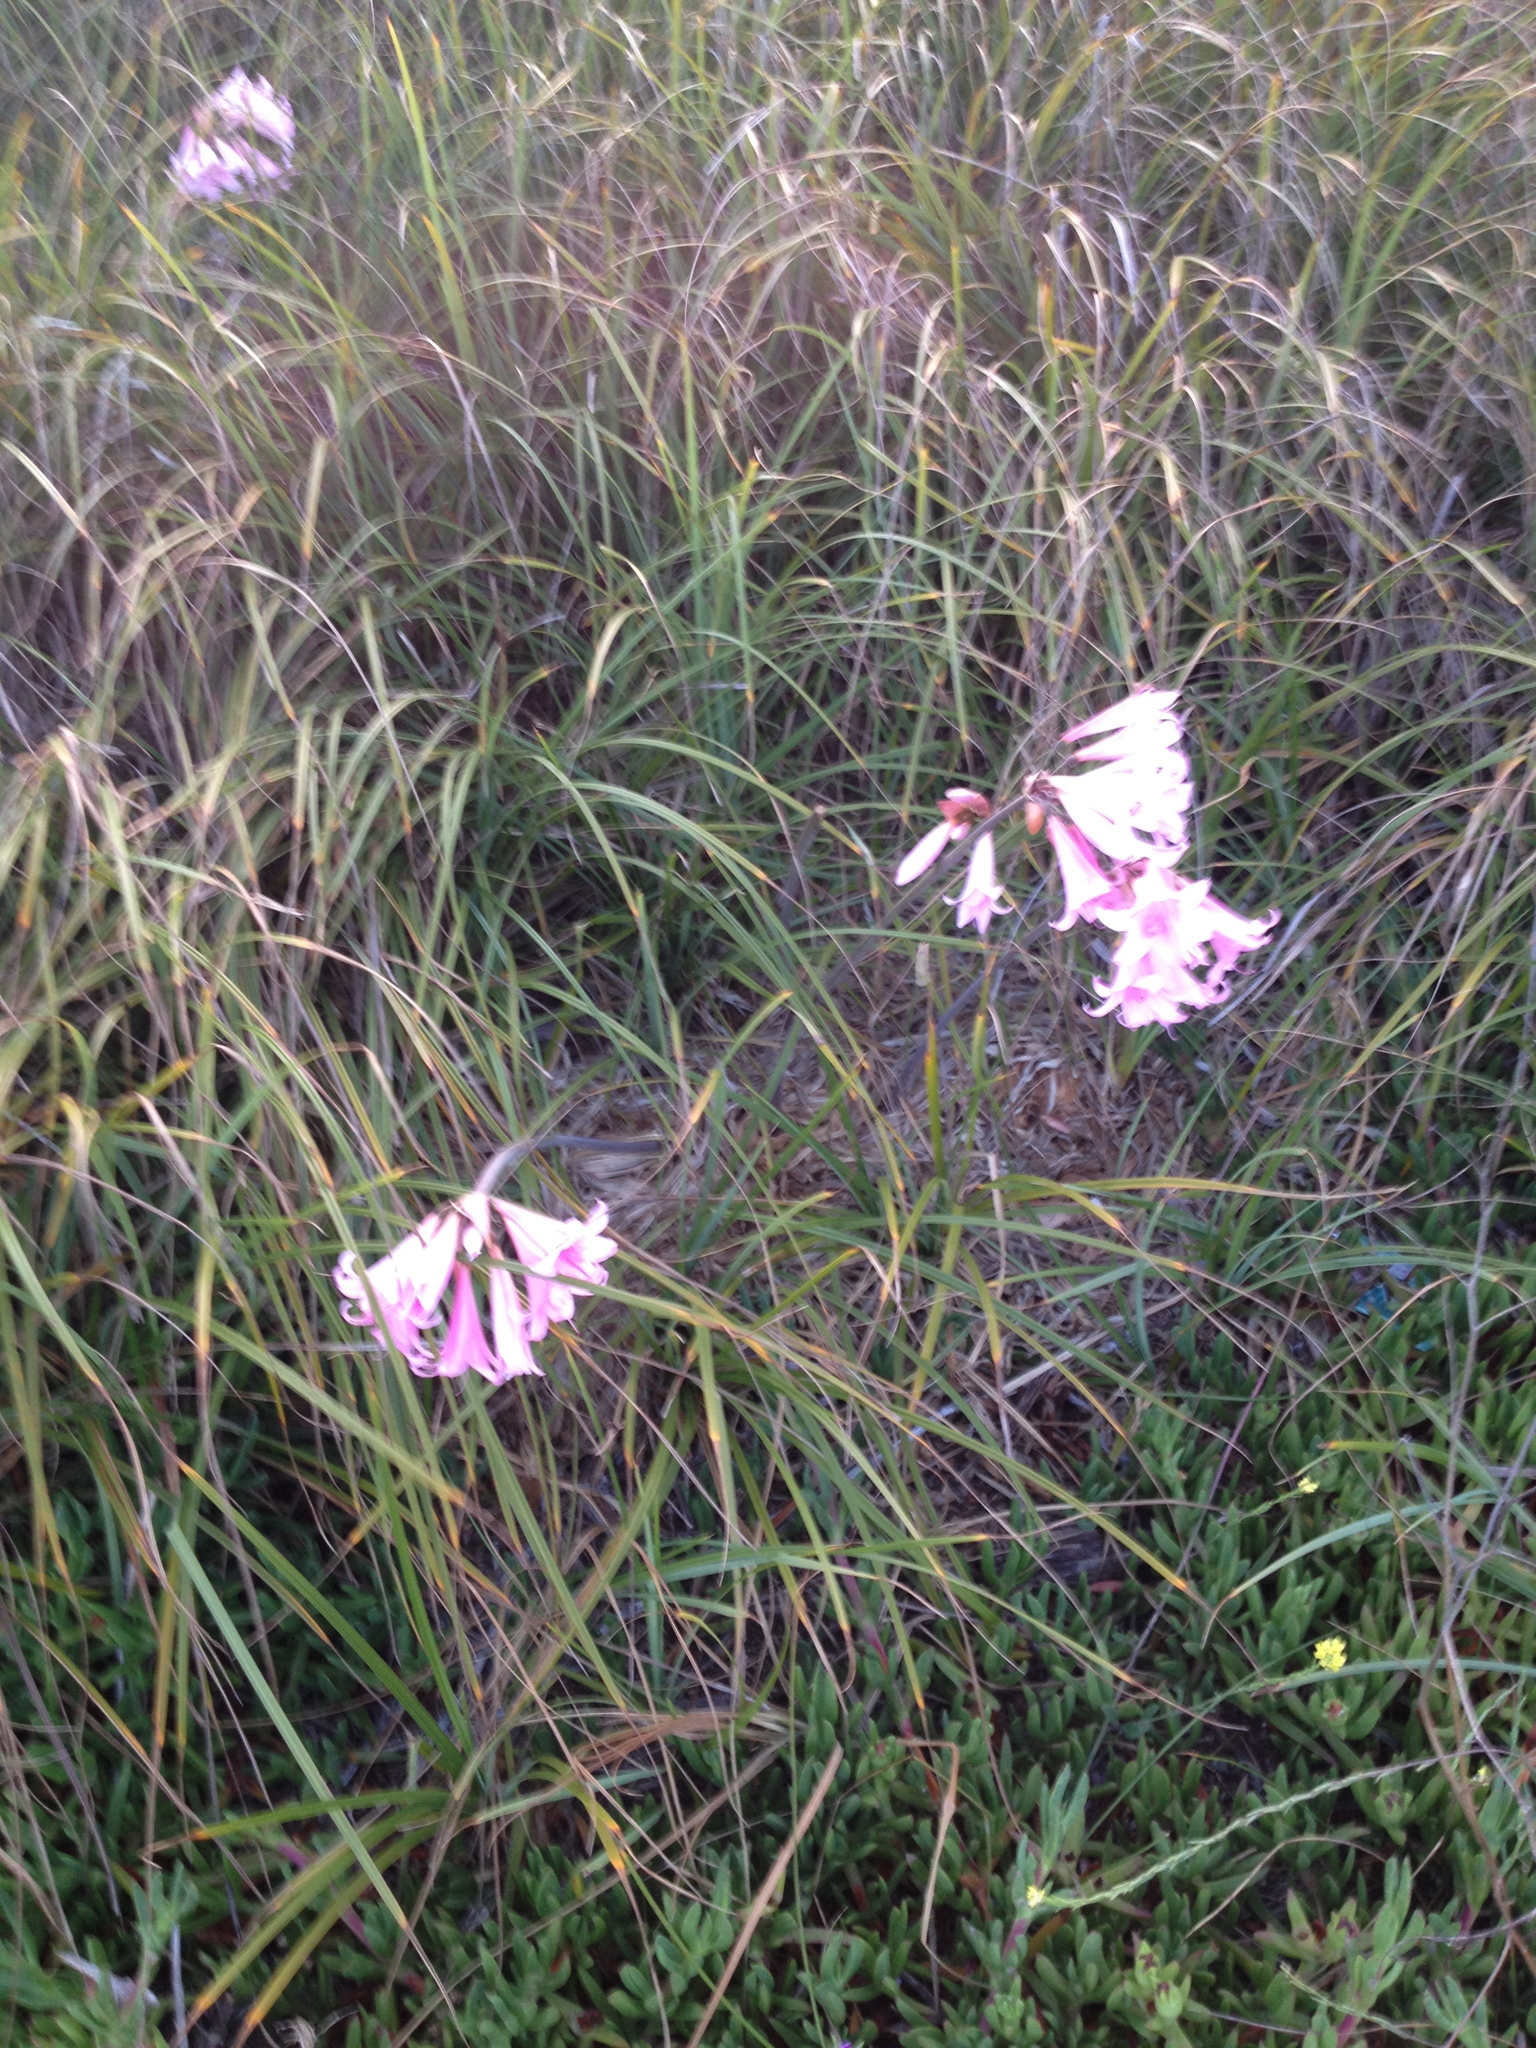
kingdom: Plantae
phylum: Tracheophyta
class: Liliopsida
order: Asparagales
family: Amaryllidaceae
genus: Amaryllis
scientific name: Amaryllis belladonna
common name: Jersey lily
